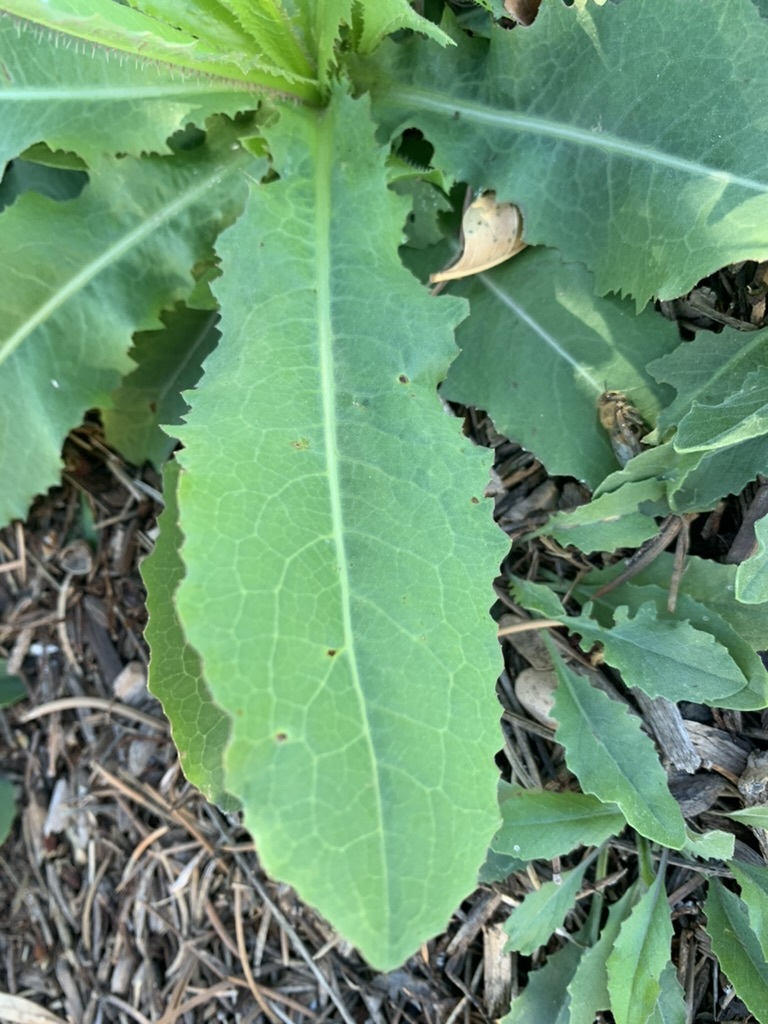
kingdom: Plantae
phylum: Tracheophyta
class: Magnoliopsida
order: Asterales
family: Asteraceae
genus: Lactuca
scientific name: Lactuca serriola
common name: Prickly lettuce
